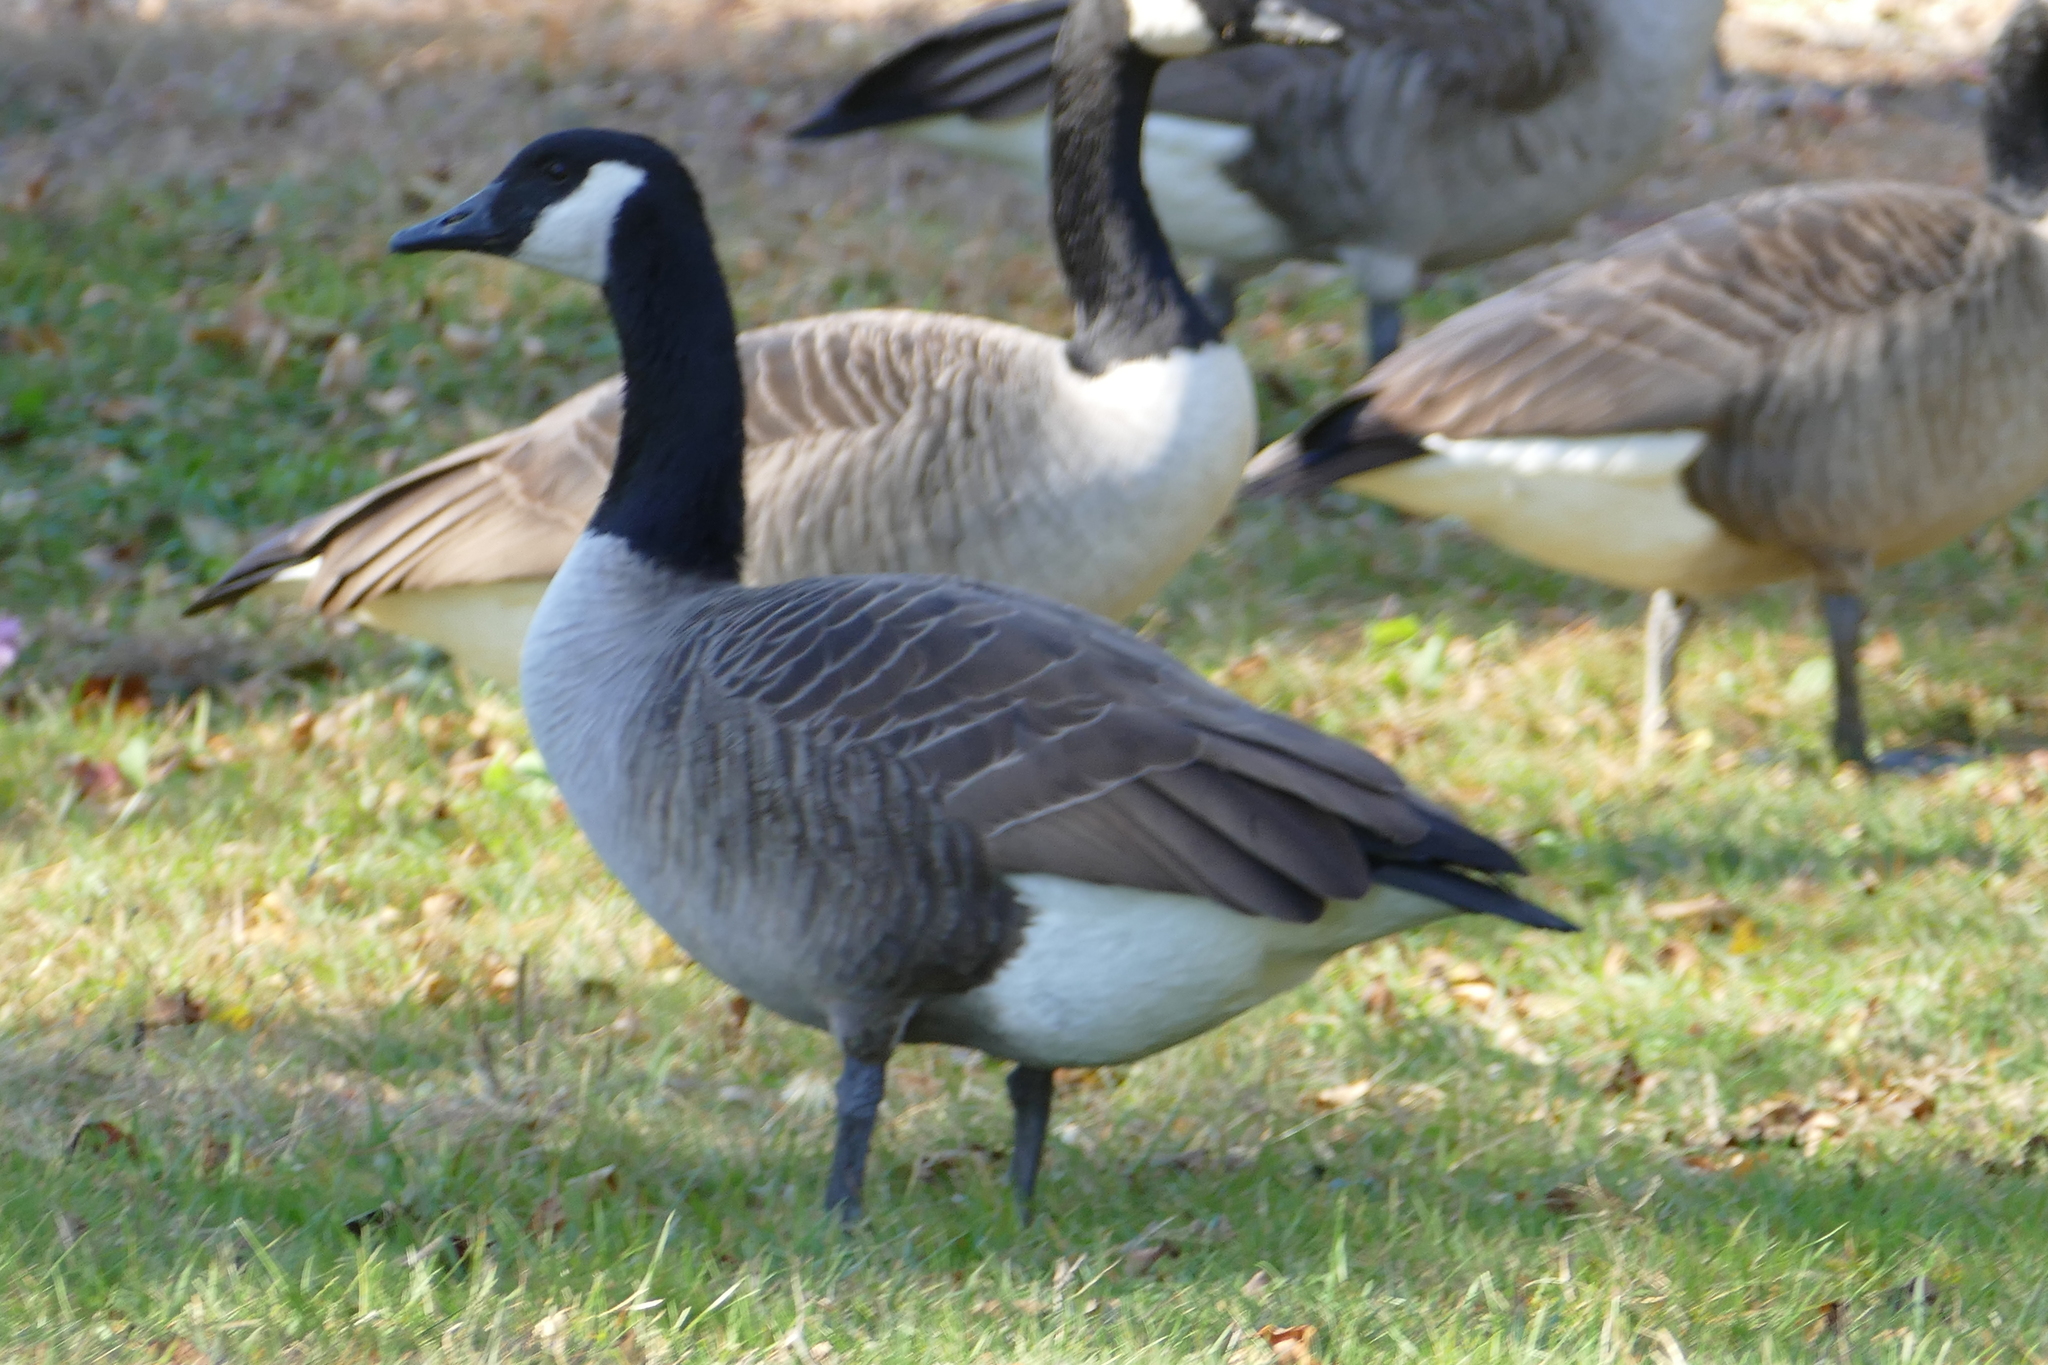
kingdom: Animalia
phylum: Chordata
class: Aves
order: Anseriformes
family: Anatidae
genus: Branta
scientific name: Branta canadensis
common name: Canada goose
